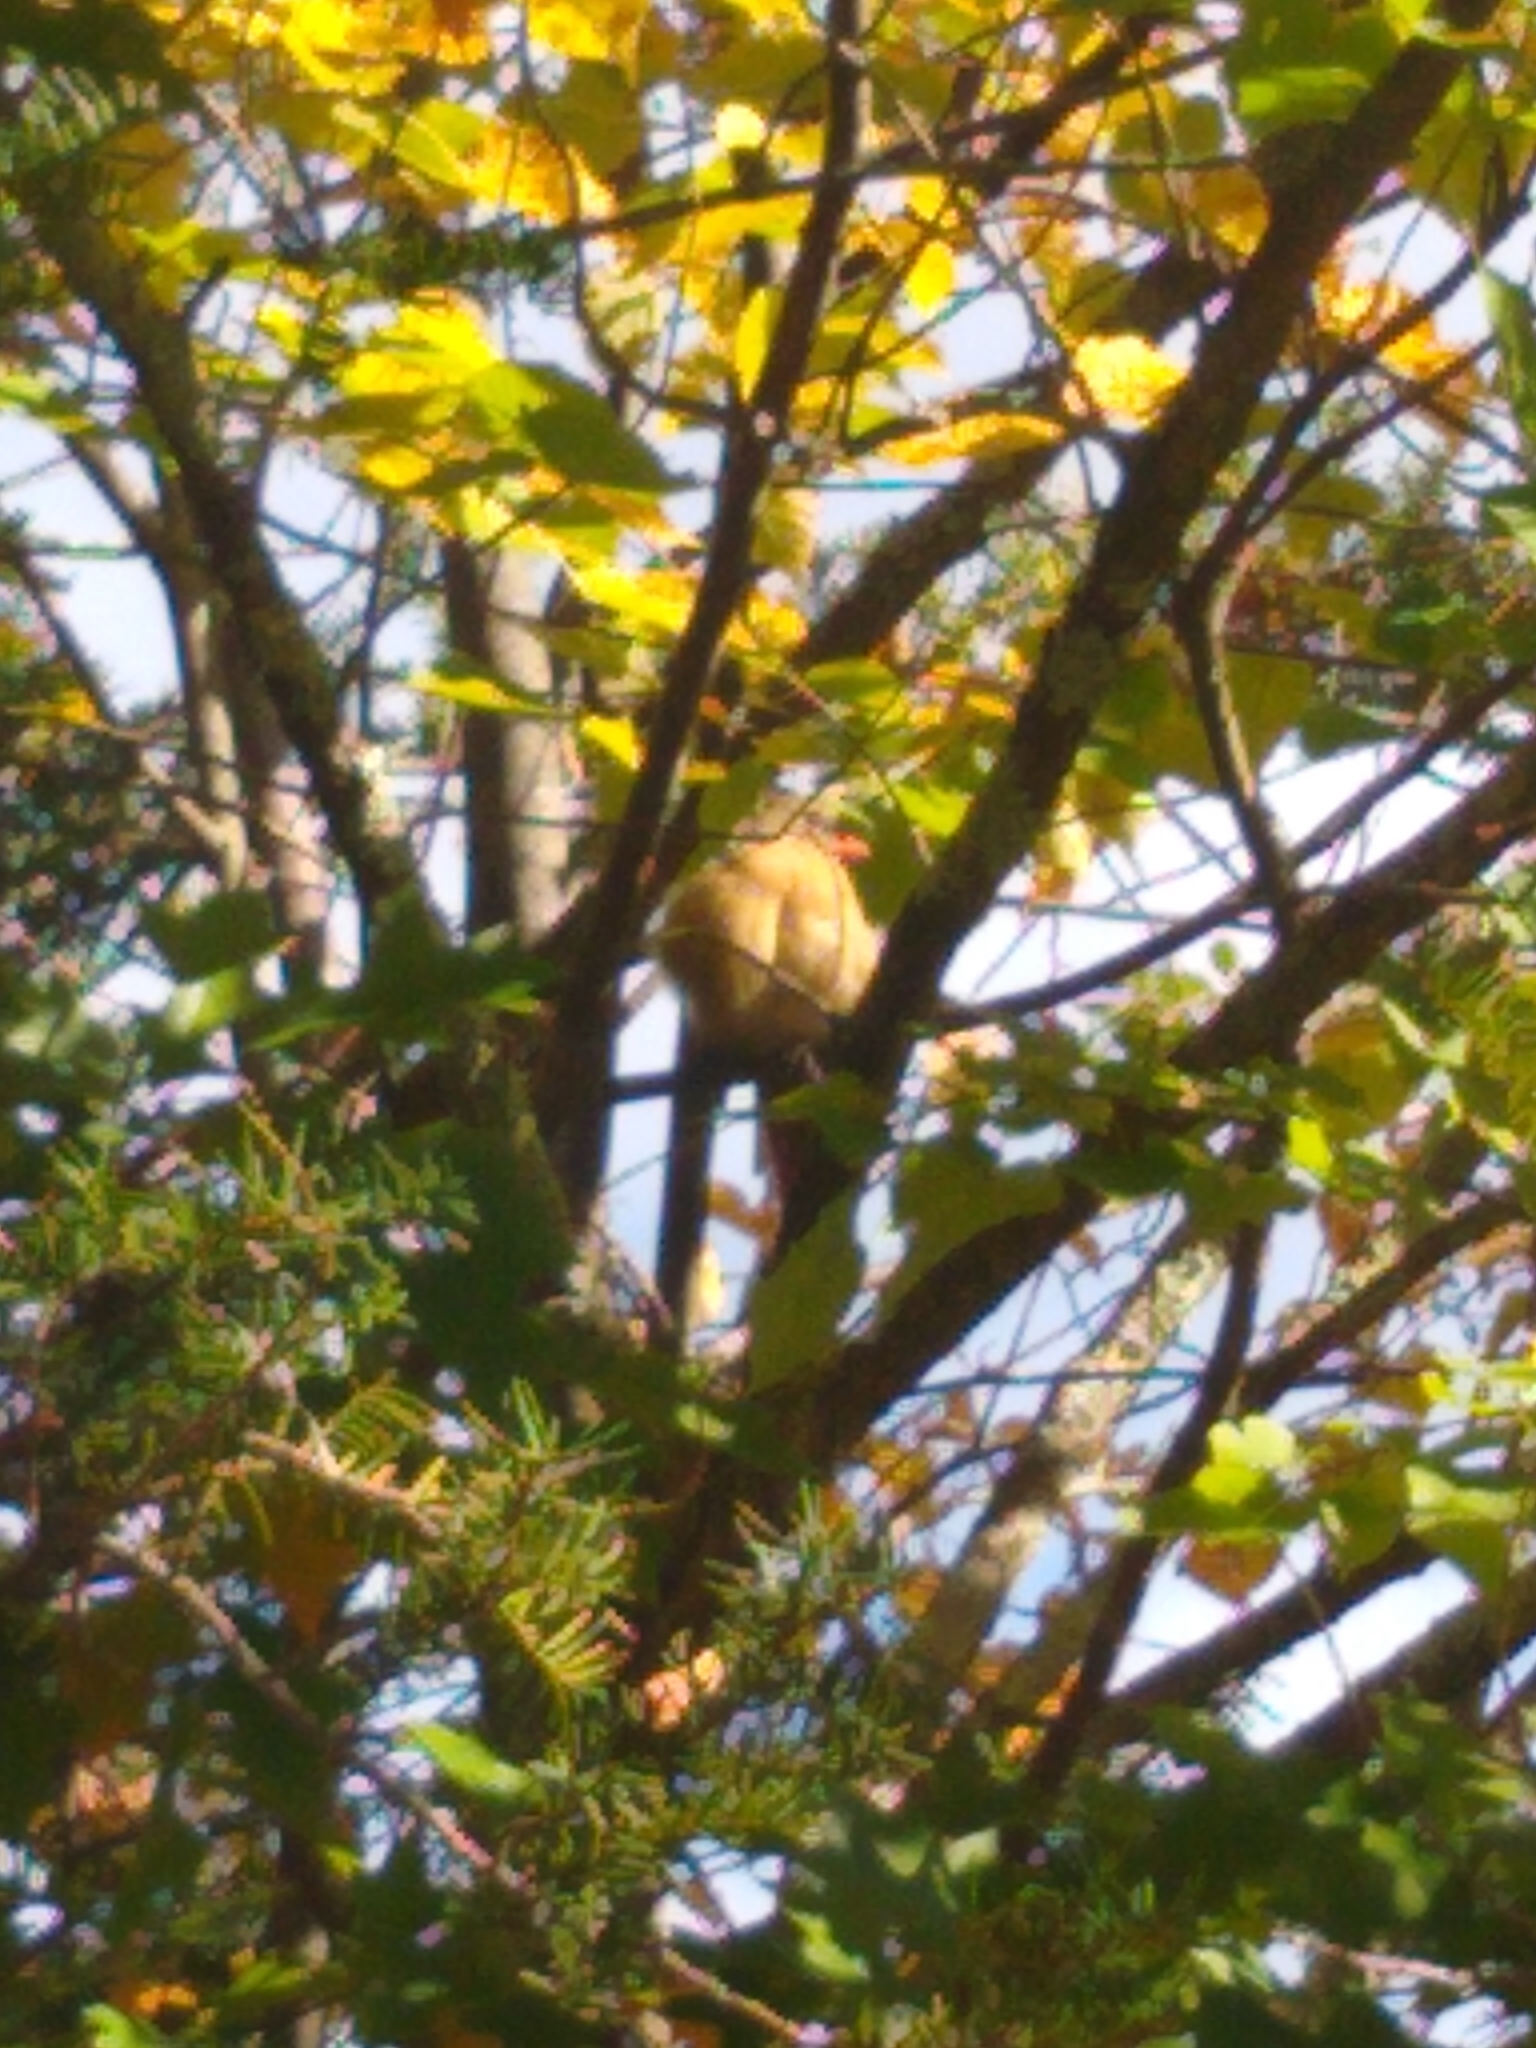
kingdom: Animalia
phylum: Chordata
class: Aves
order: Passeriformes
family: Cardinalidae
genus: Cardinalis
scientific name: Cardinalis cardinalis
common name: Northern cardinal
